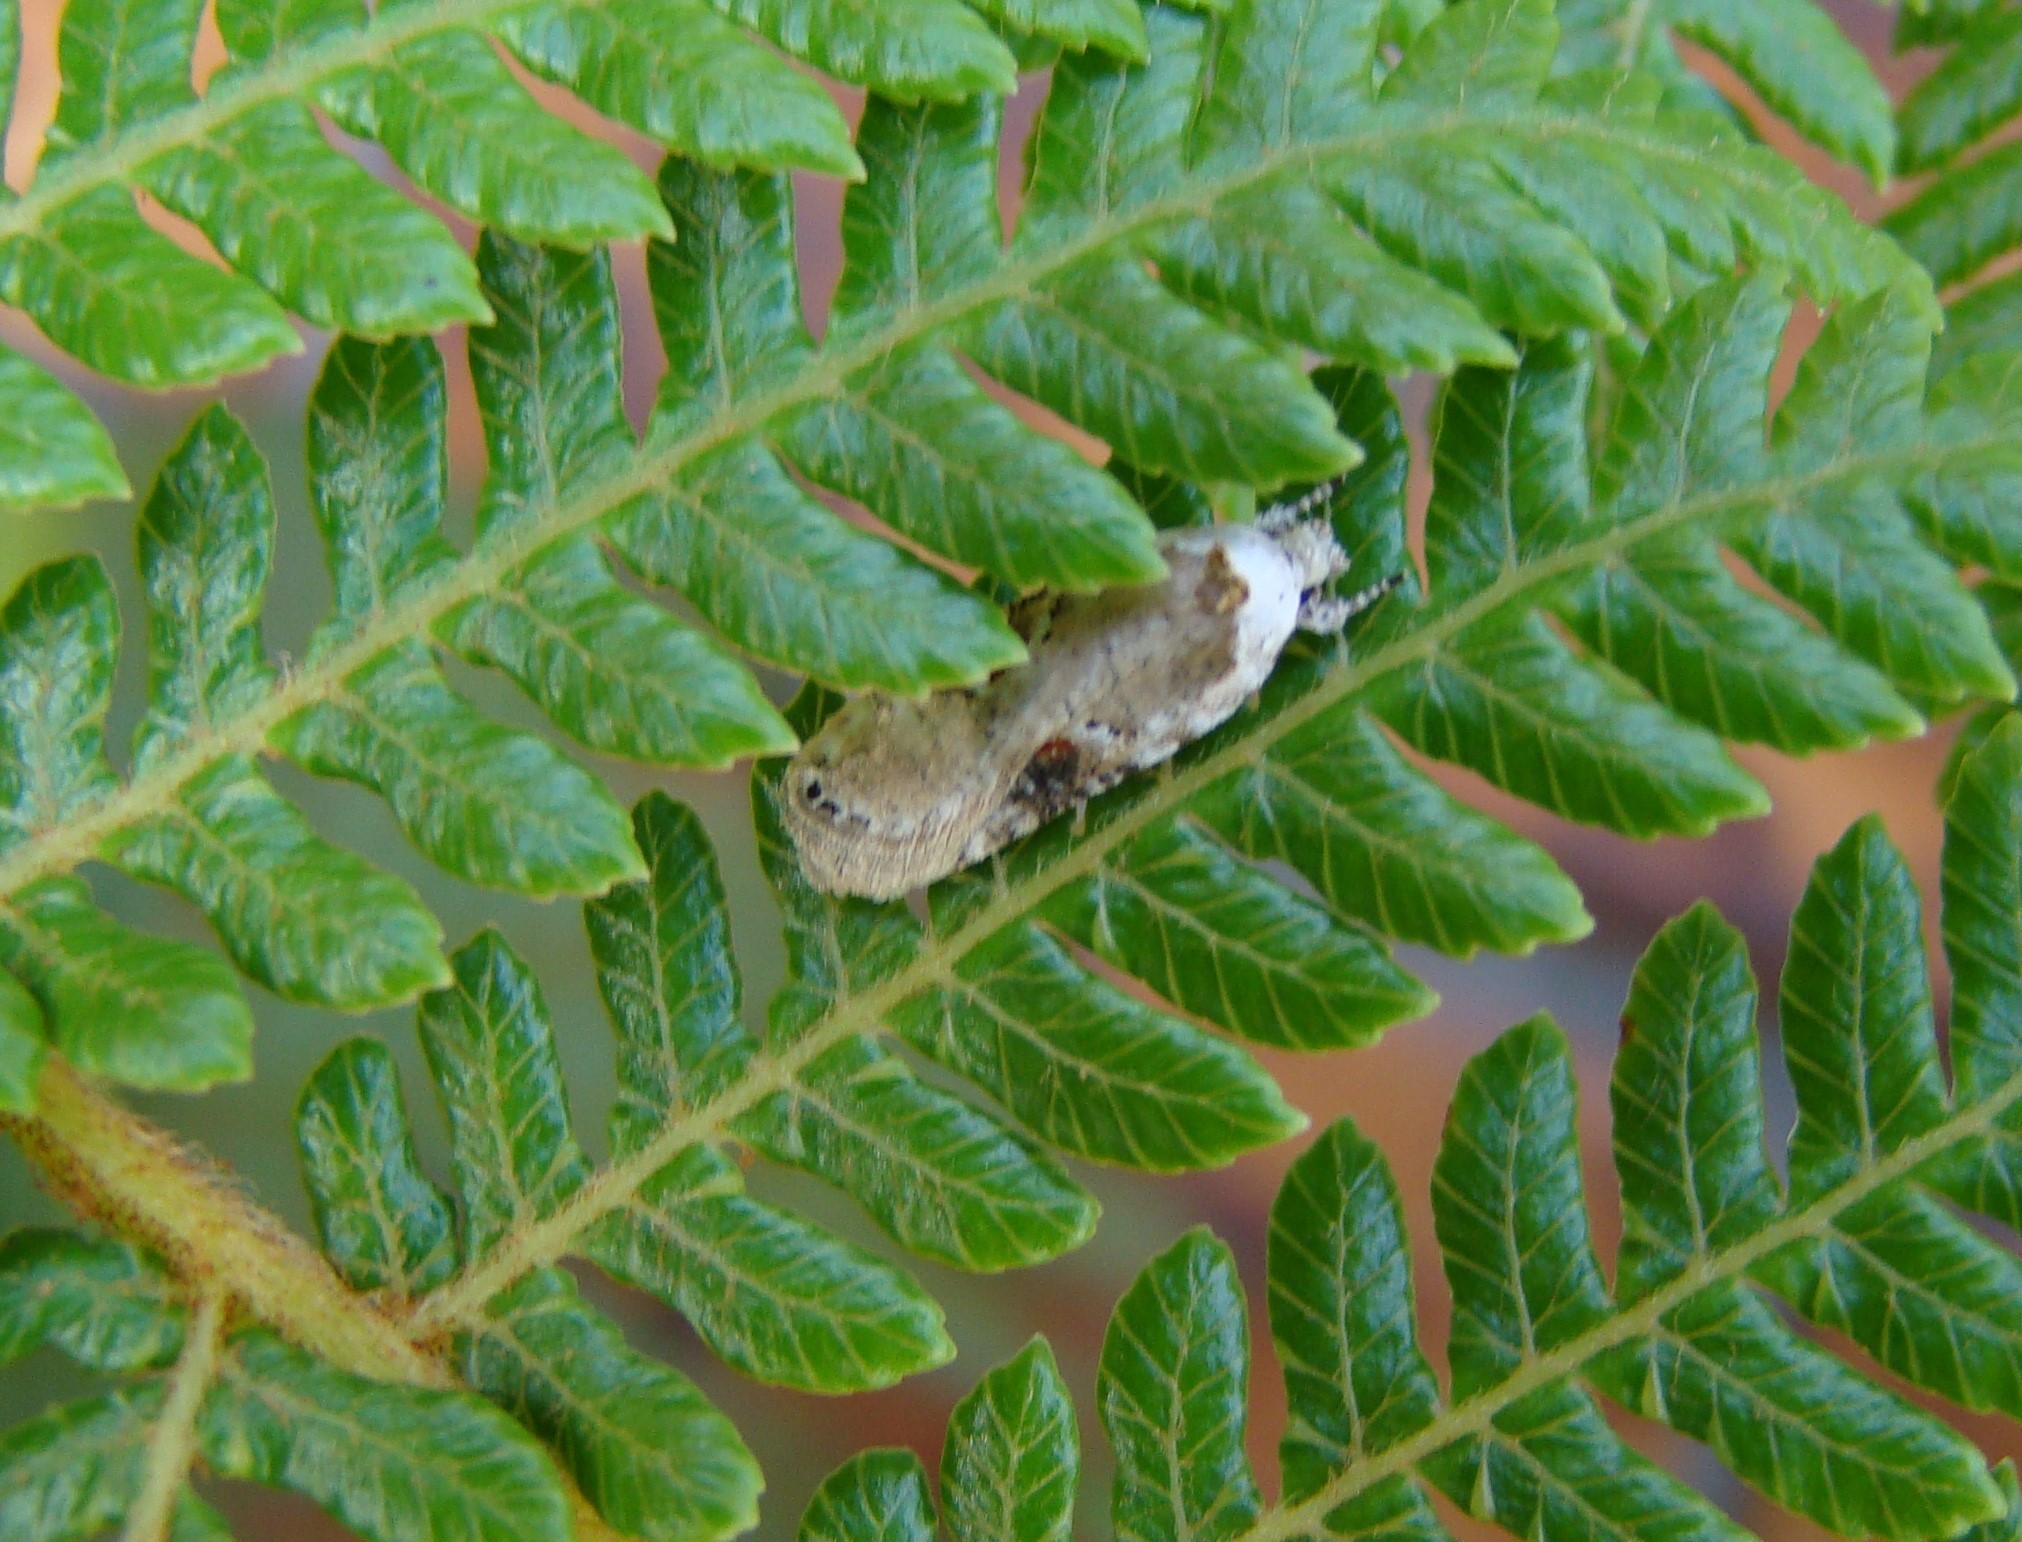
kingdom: Animalia
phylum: Arthropoda
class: Insecta
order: Lepidoptera
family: Depressariidae
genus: Agonopterix
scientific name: Agonopterix alstroemeriana
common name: Moth
